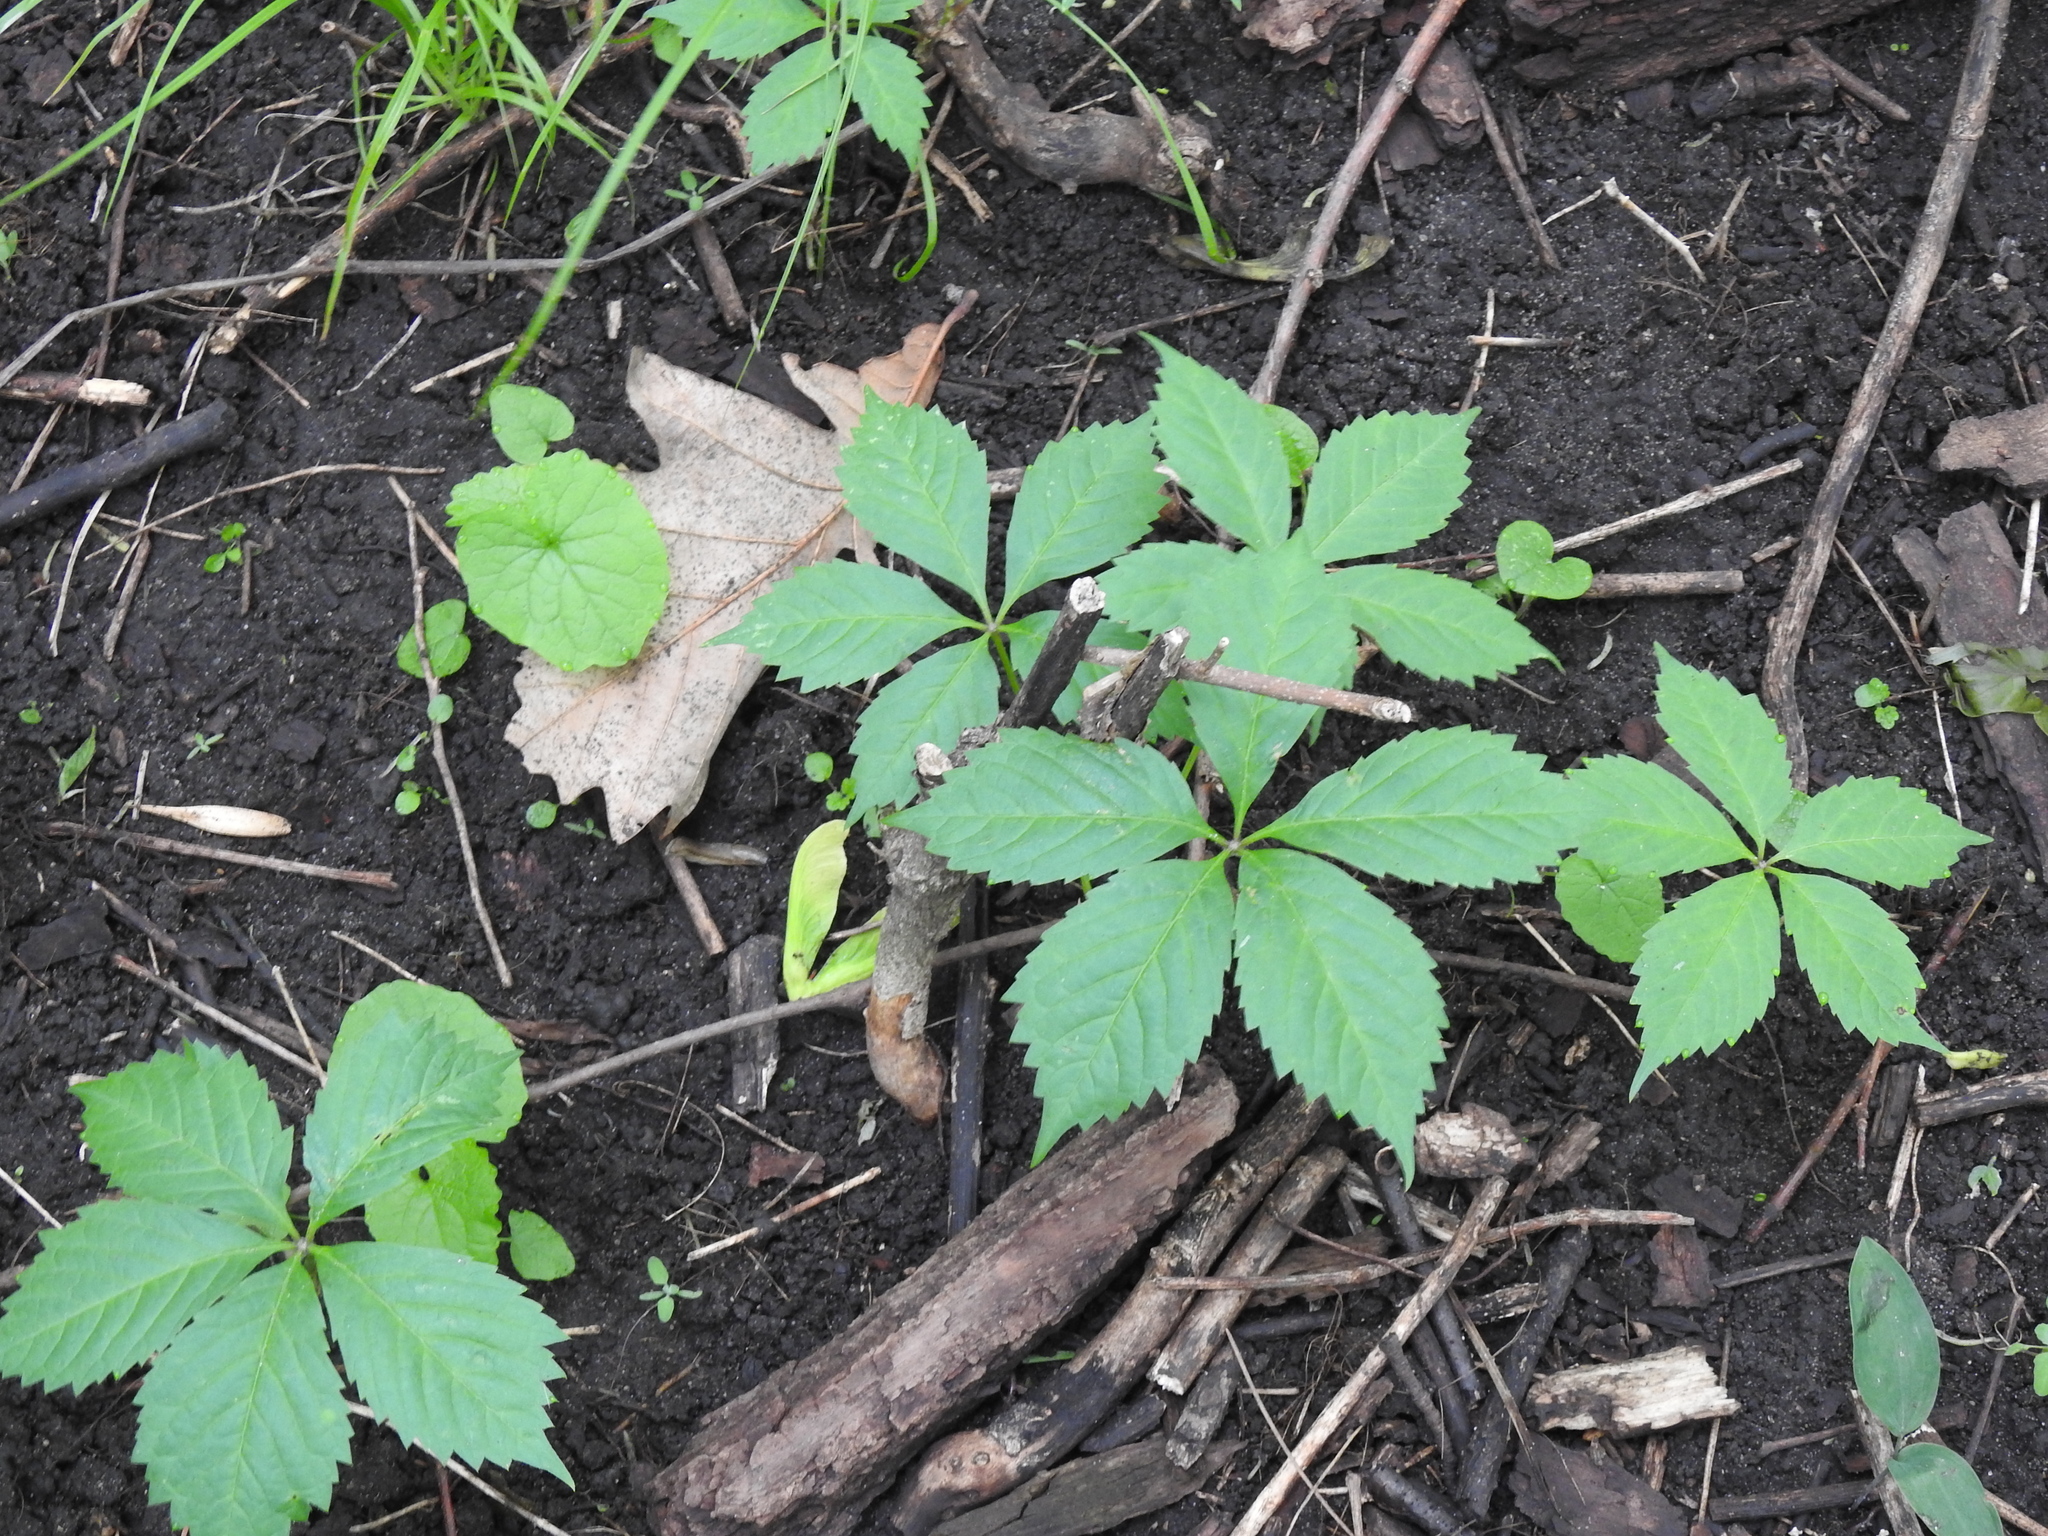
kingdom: Plantae
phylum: Tracheophyta
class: Magnoliopsida
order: Vitales
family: Vitaceae
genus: Parthenocissus
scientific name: Parthenocissus quinquefolia
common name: Virginia-creeper
